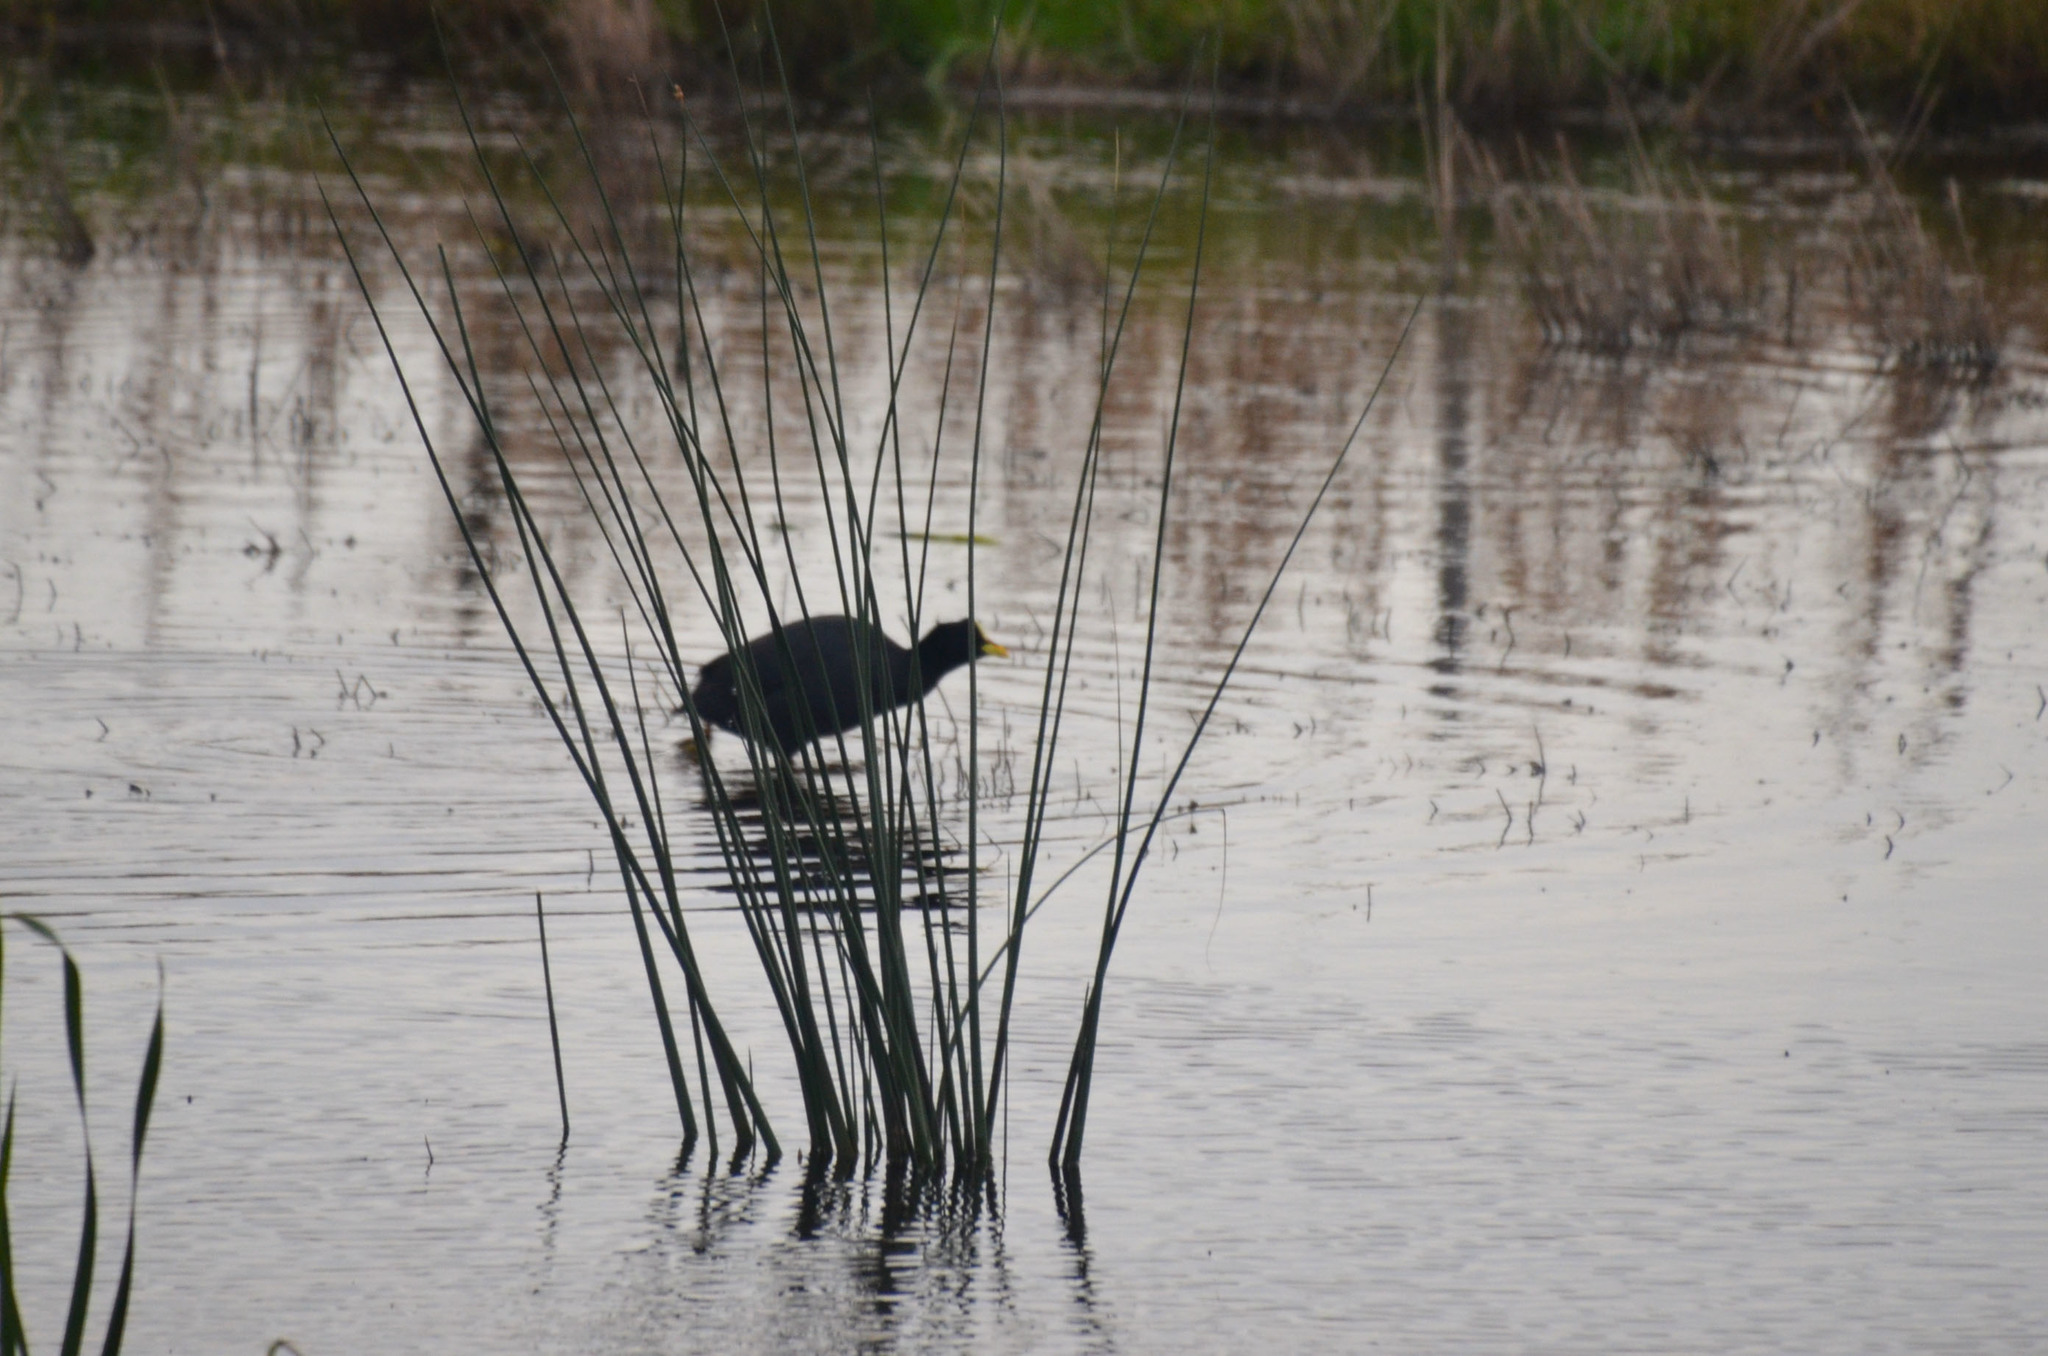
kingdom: Animalia
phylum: Chordata
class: Aves
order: Gruiformes
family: Rallidae
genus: Fulica
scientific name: Fulica armillata
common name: Red-gartered coot
